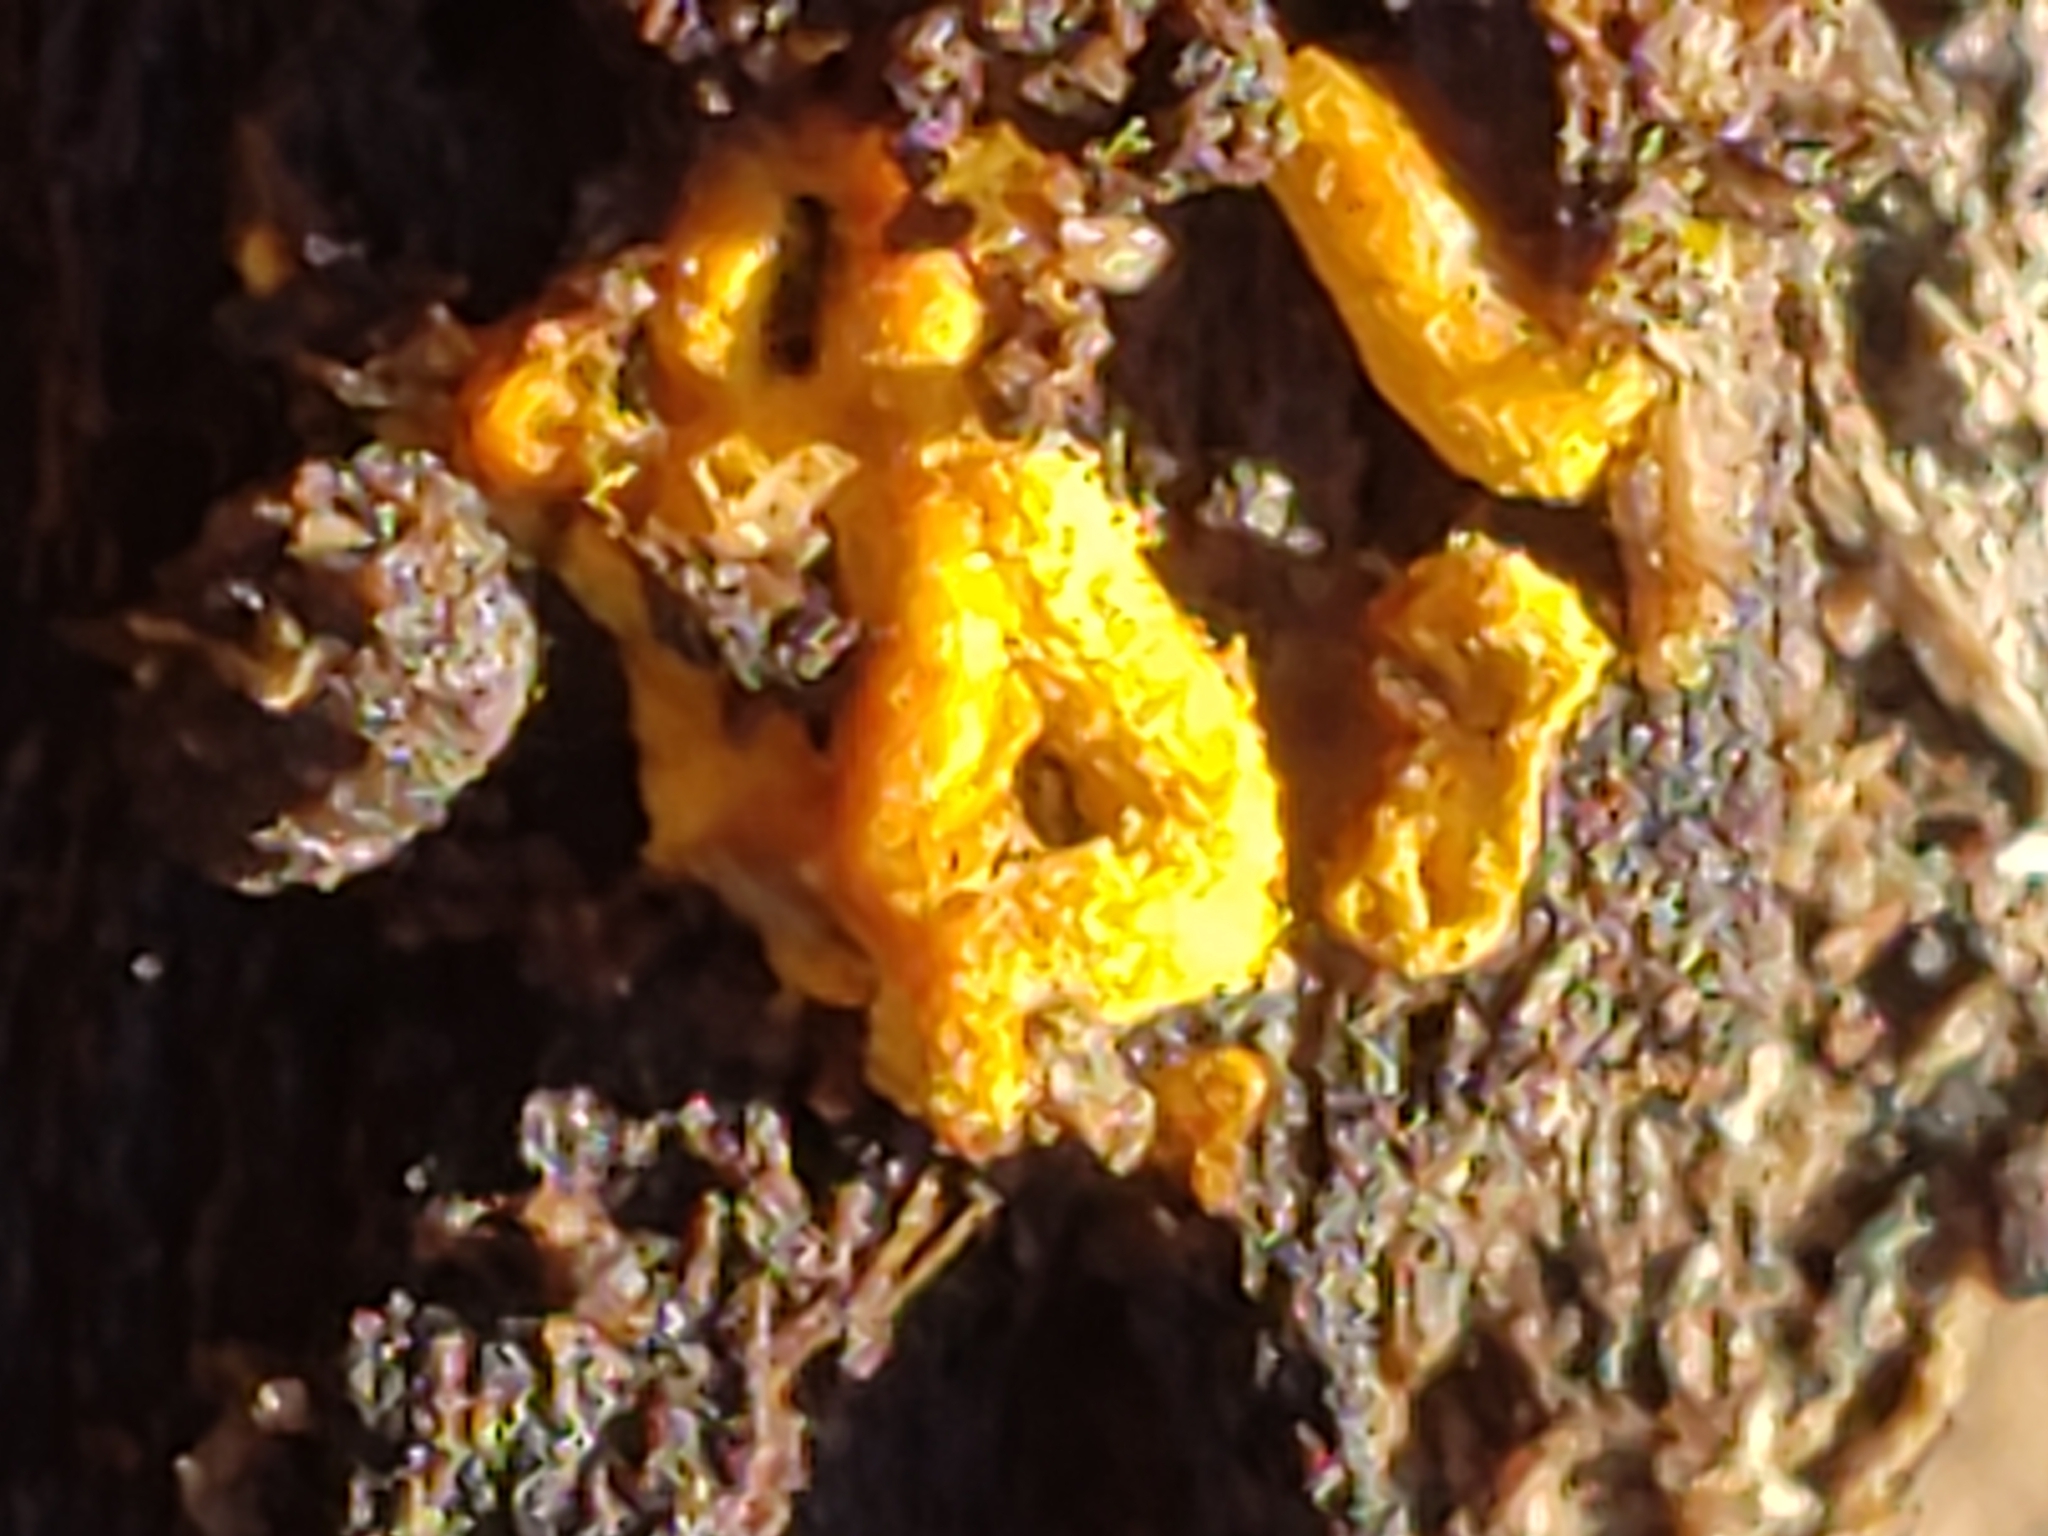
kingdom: Protozoa
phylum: Mycetozoa
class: Myxomycetes
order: Trichiales
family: Arcyriaceae
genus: Hemitrichia
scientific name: Hemitrichia serpula
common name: Pretzel slime mold
